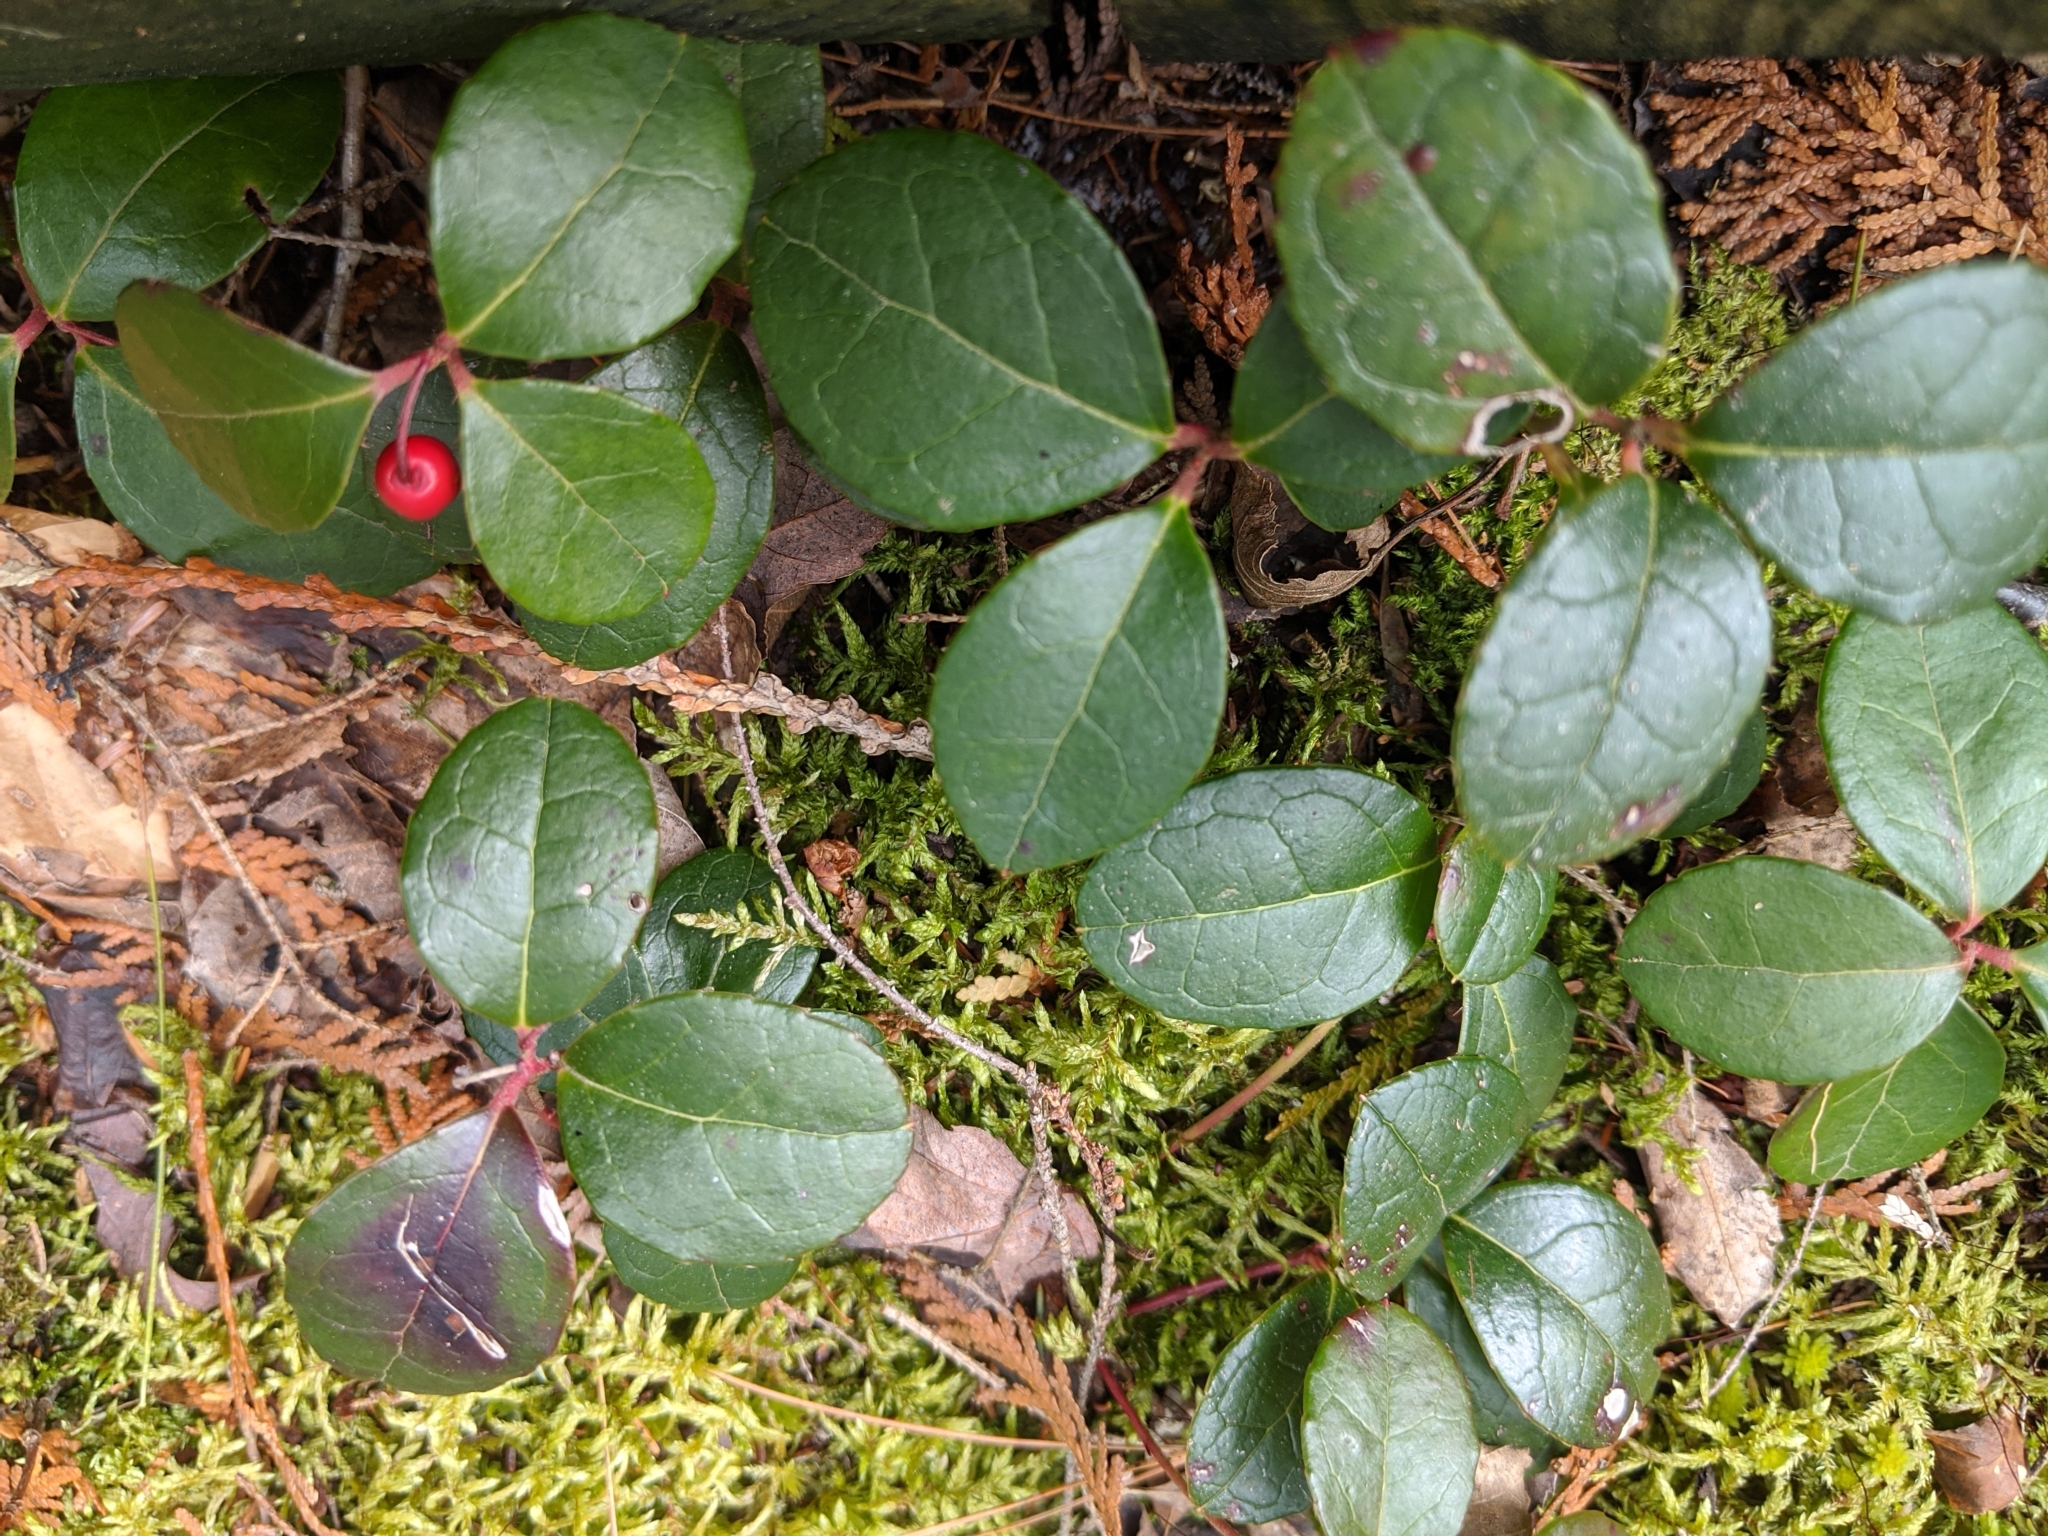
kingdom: Plantae
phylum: Tracheophyta
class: Magnoliopsida
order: Ericales
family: Ericaceae
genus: Gaultheria
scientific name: Gaultheria procumbens
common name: Checkerberry
